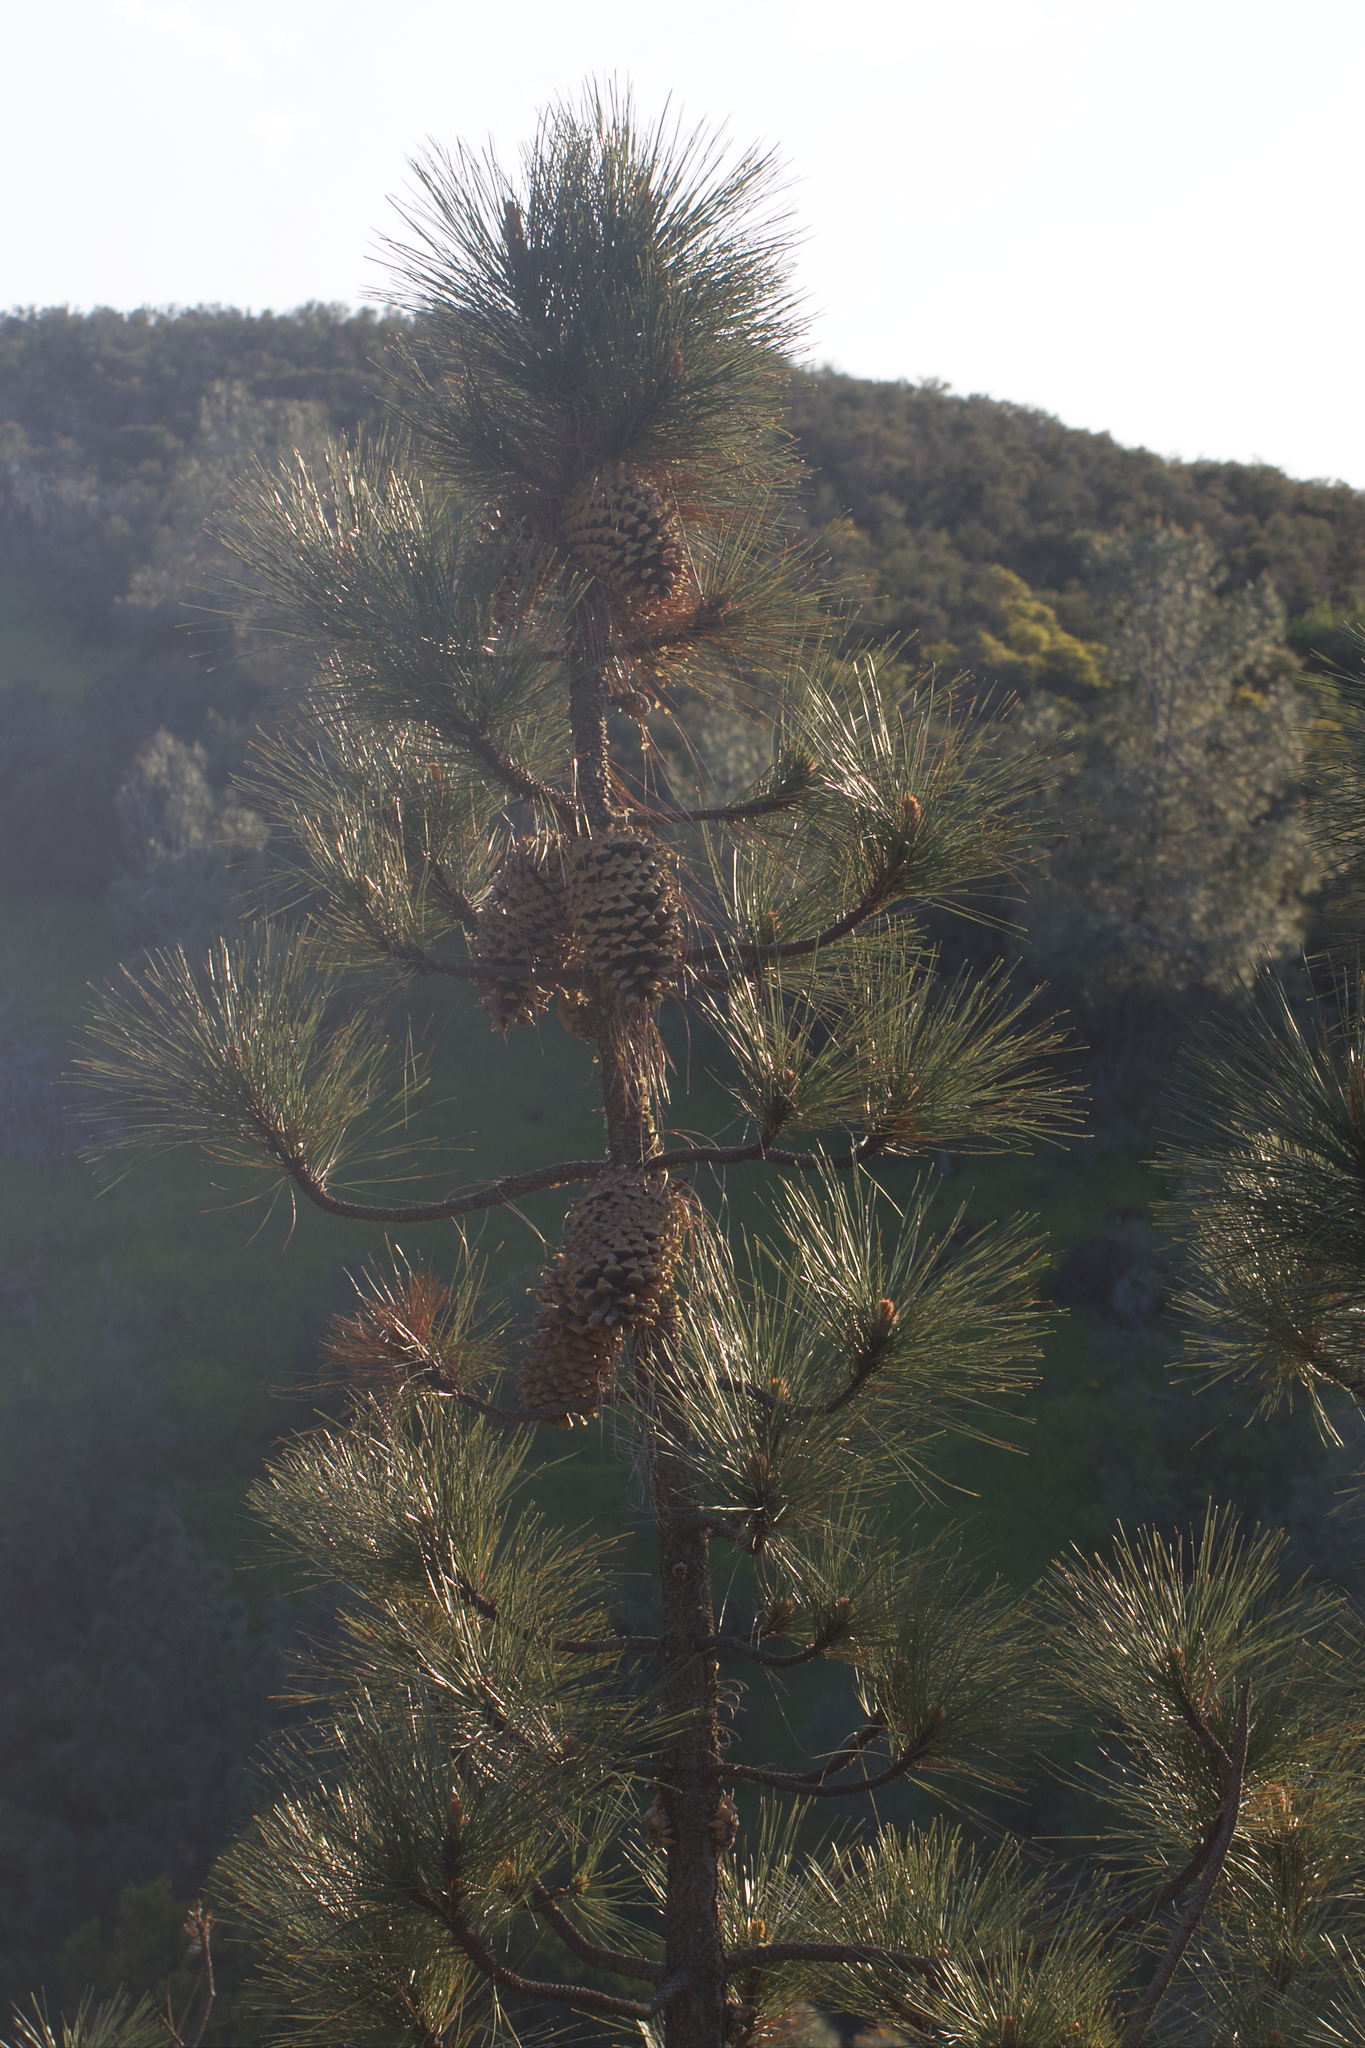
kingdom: Plantae
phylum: Tracheophyta
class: Pinopsida
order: Pinales
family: Pinaceae
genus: Pinus
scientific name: Pinus coulteri
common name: Coulter pine
